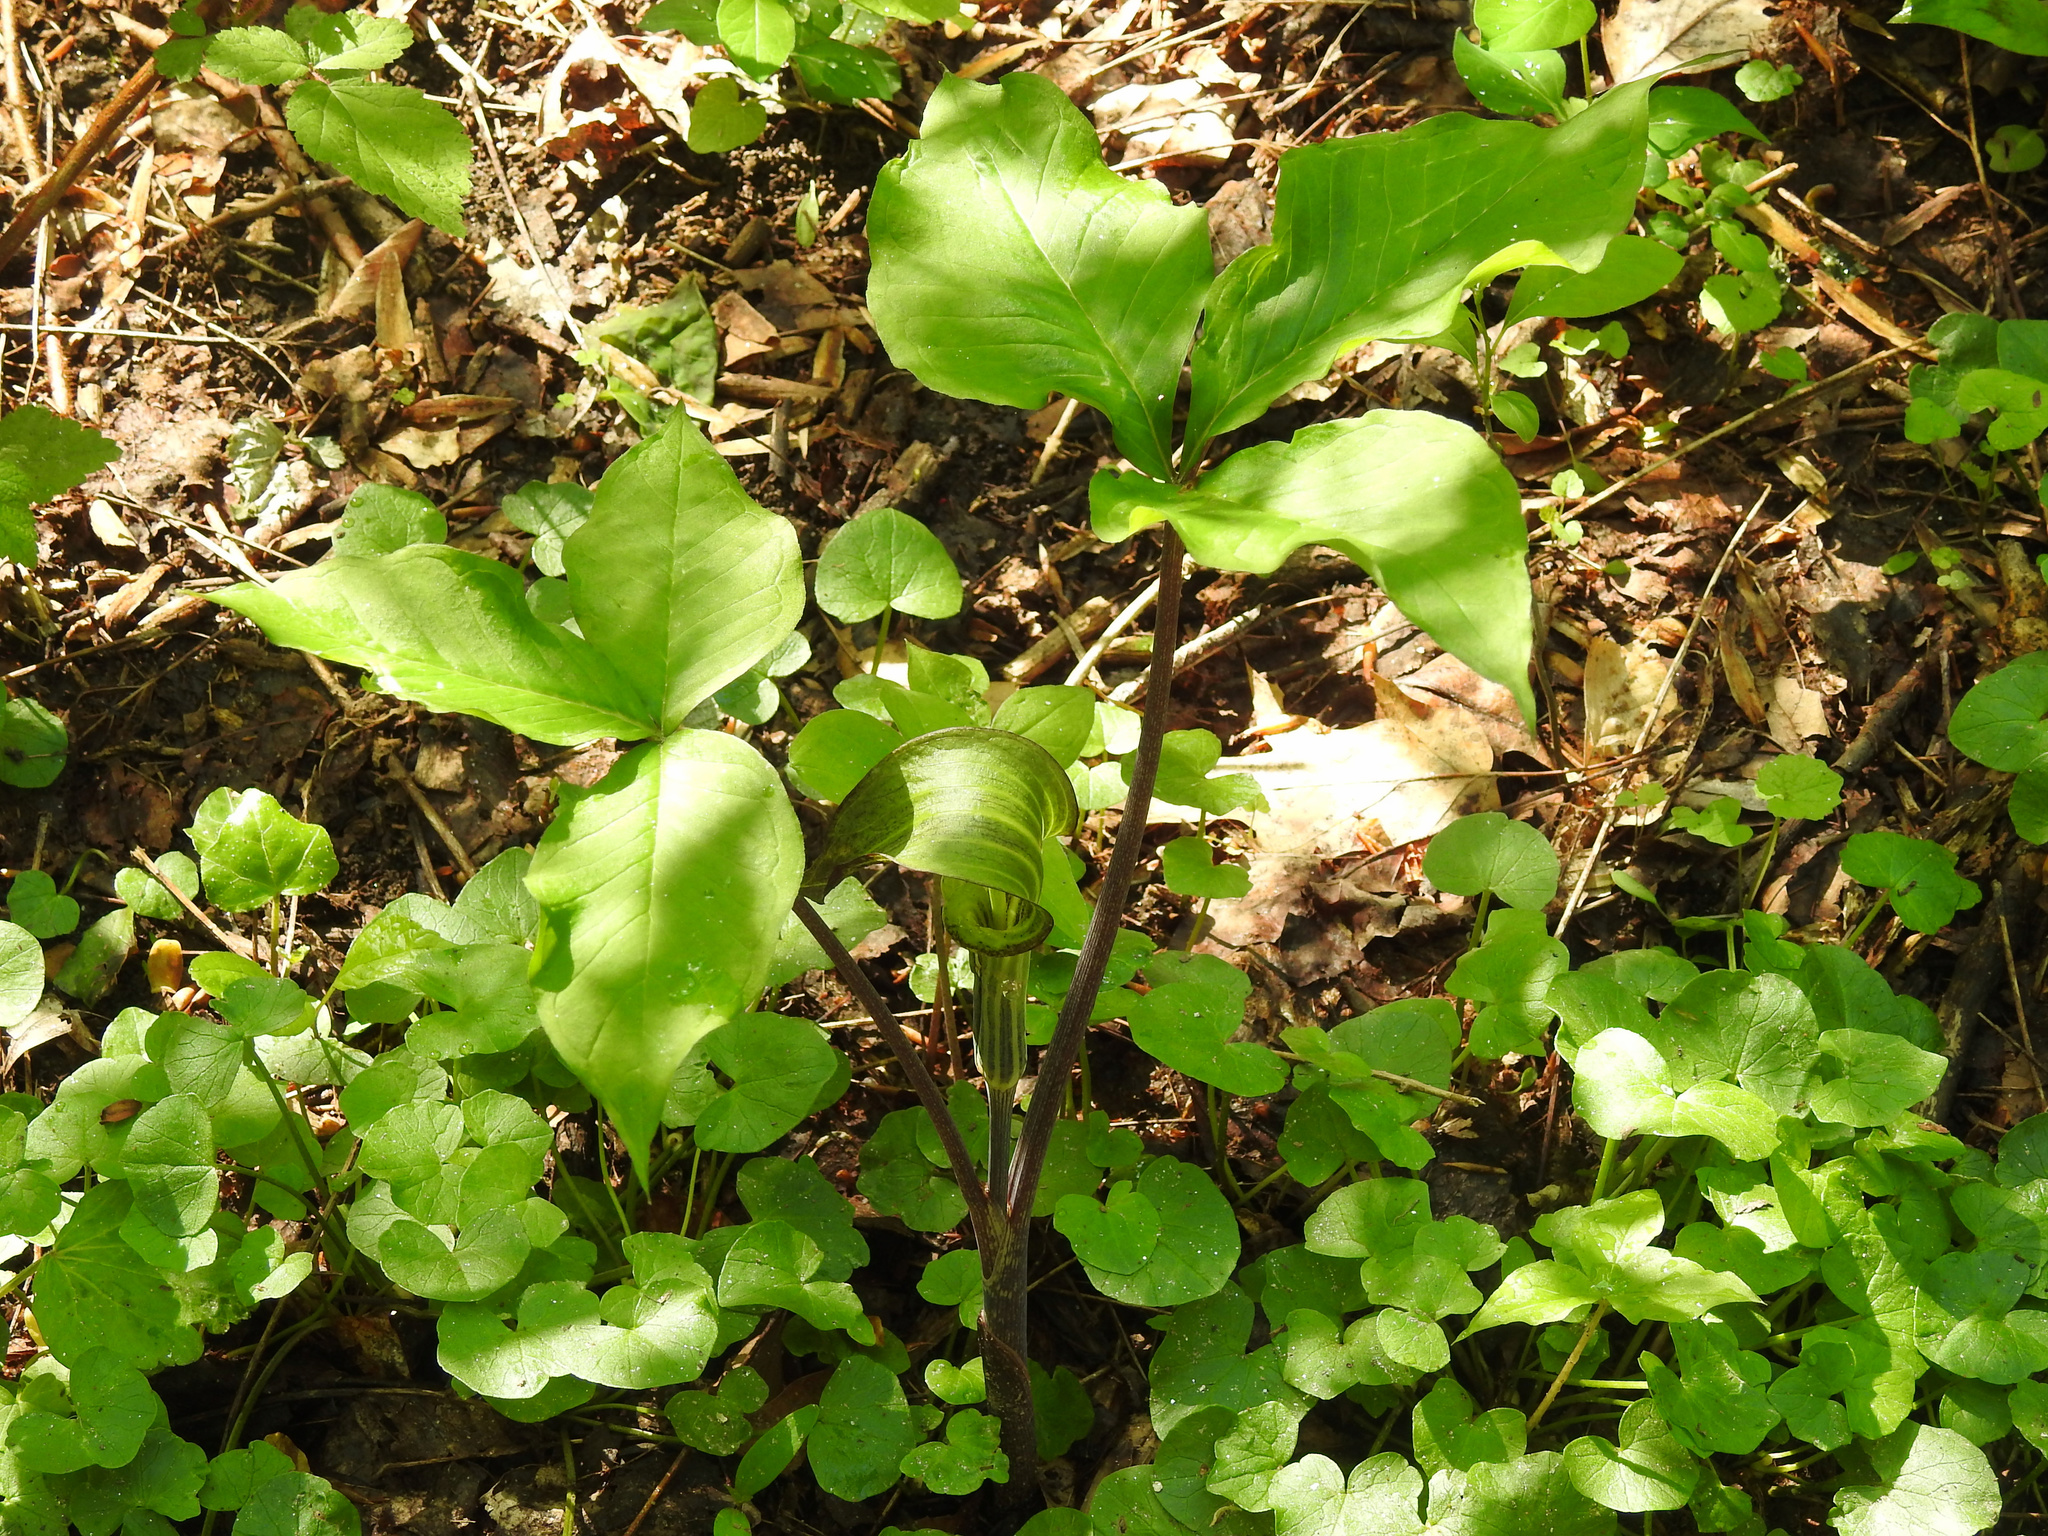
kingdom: Plantae
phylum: Tracheophyta
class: Liliopsida
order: Alismatales
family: Araceae
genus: Arisaema
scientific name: Arisaema triphyllum
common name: Jack-in-the-pulpit
